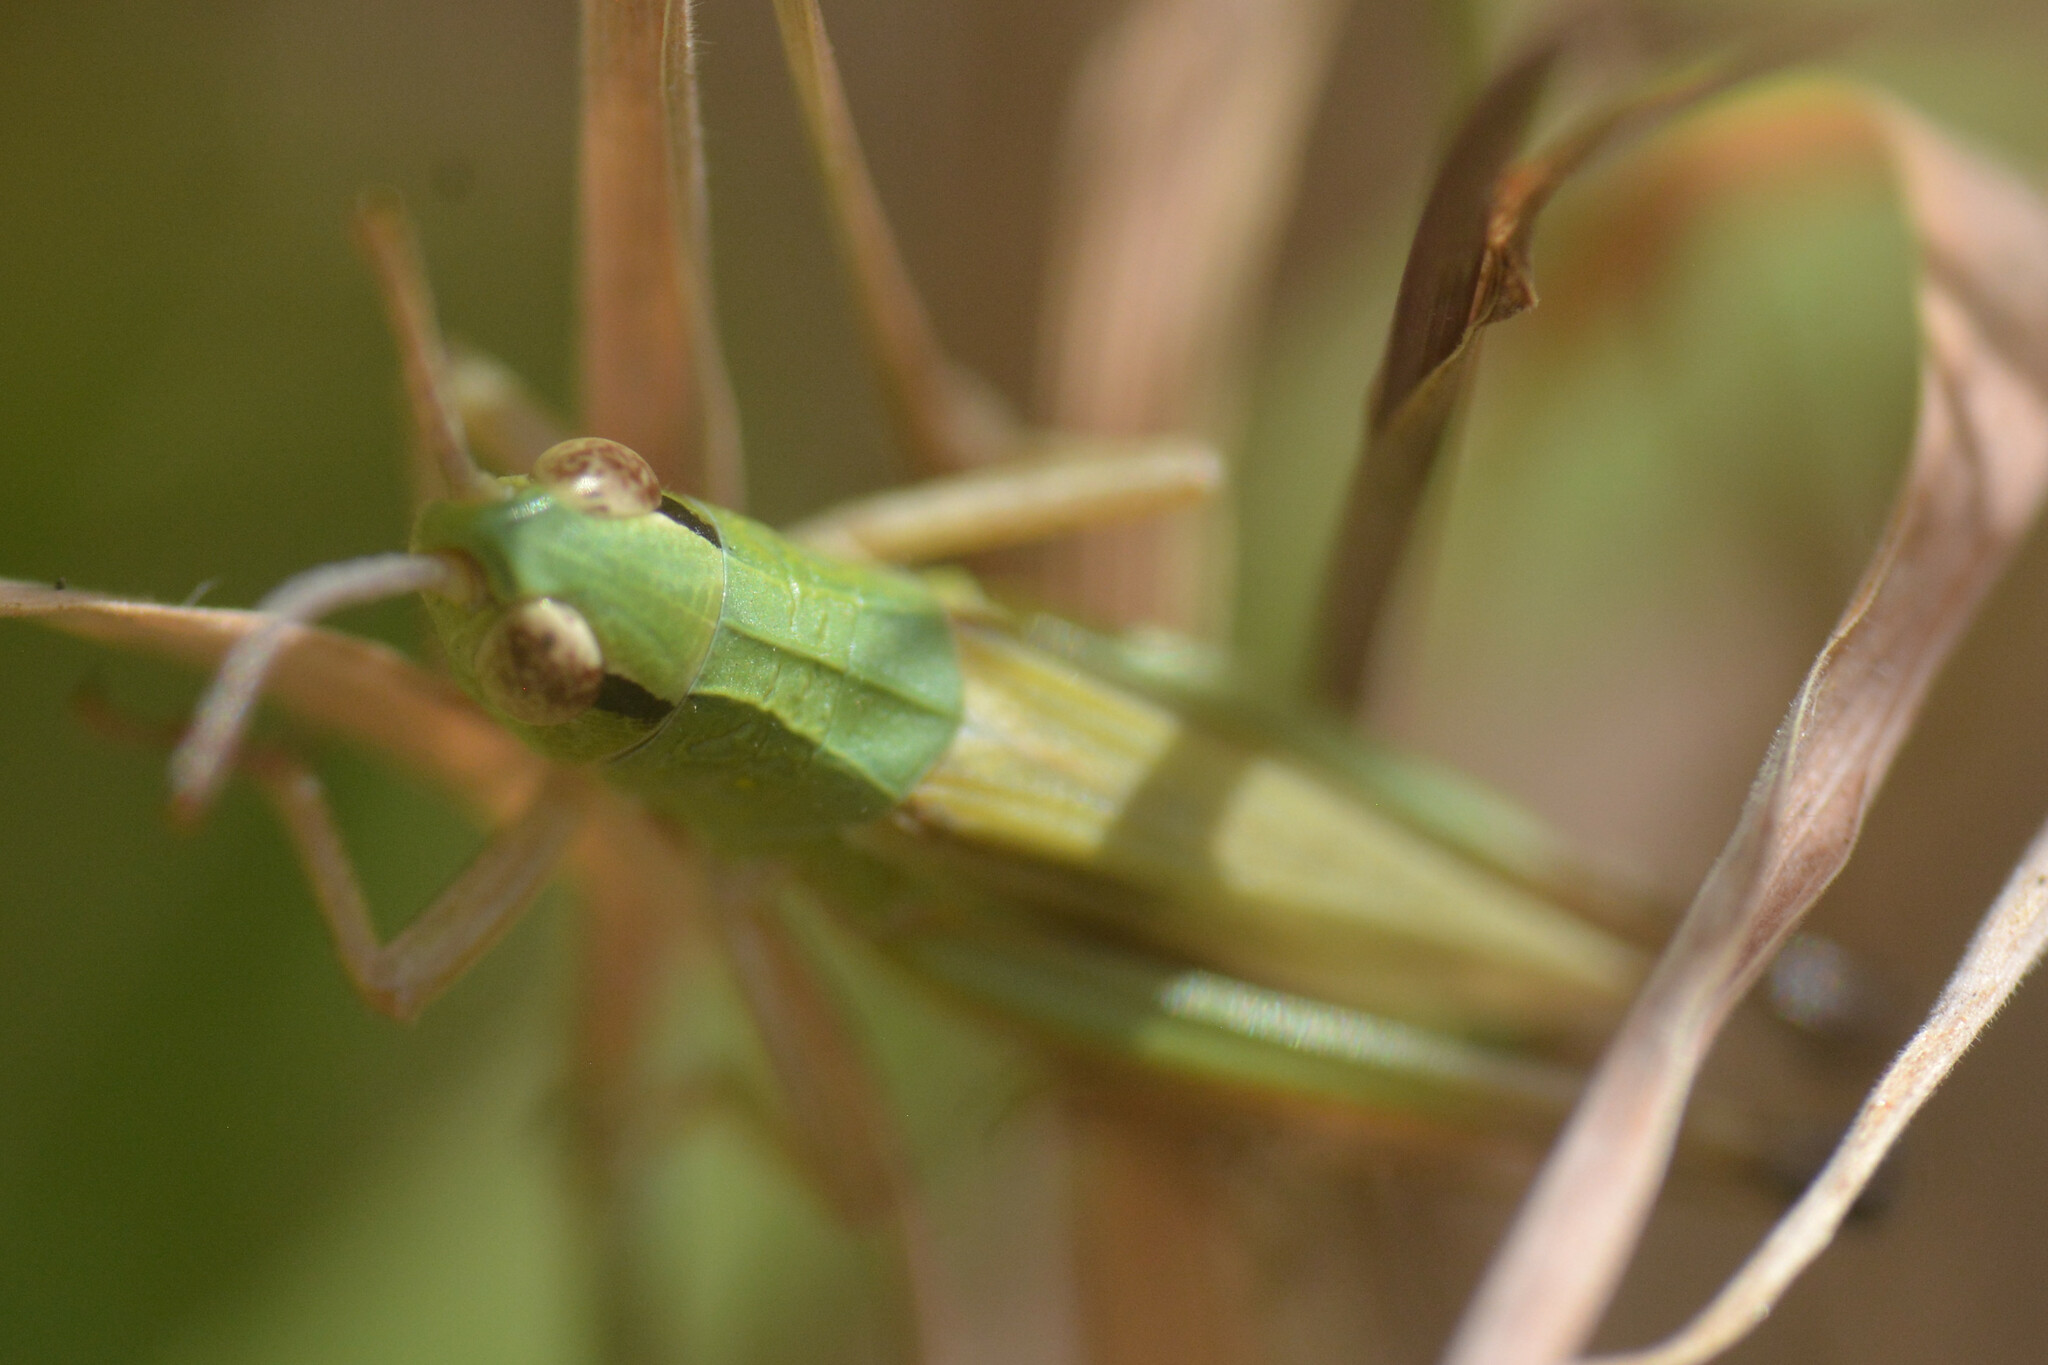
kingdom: Animalia
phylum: Arthropoda
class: Insecta
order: Orthoptera
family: Acrididae
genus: Pseudochorthippus
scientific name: Pseudochorthippus parallelus
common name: Meadow grasshopper
